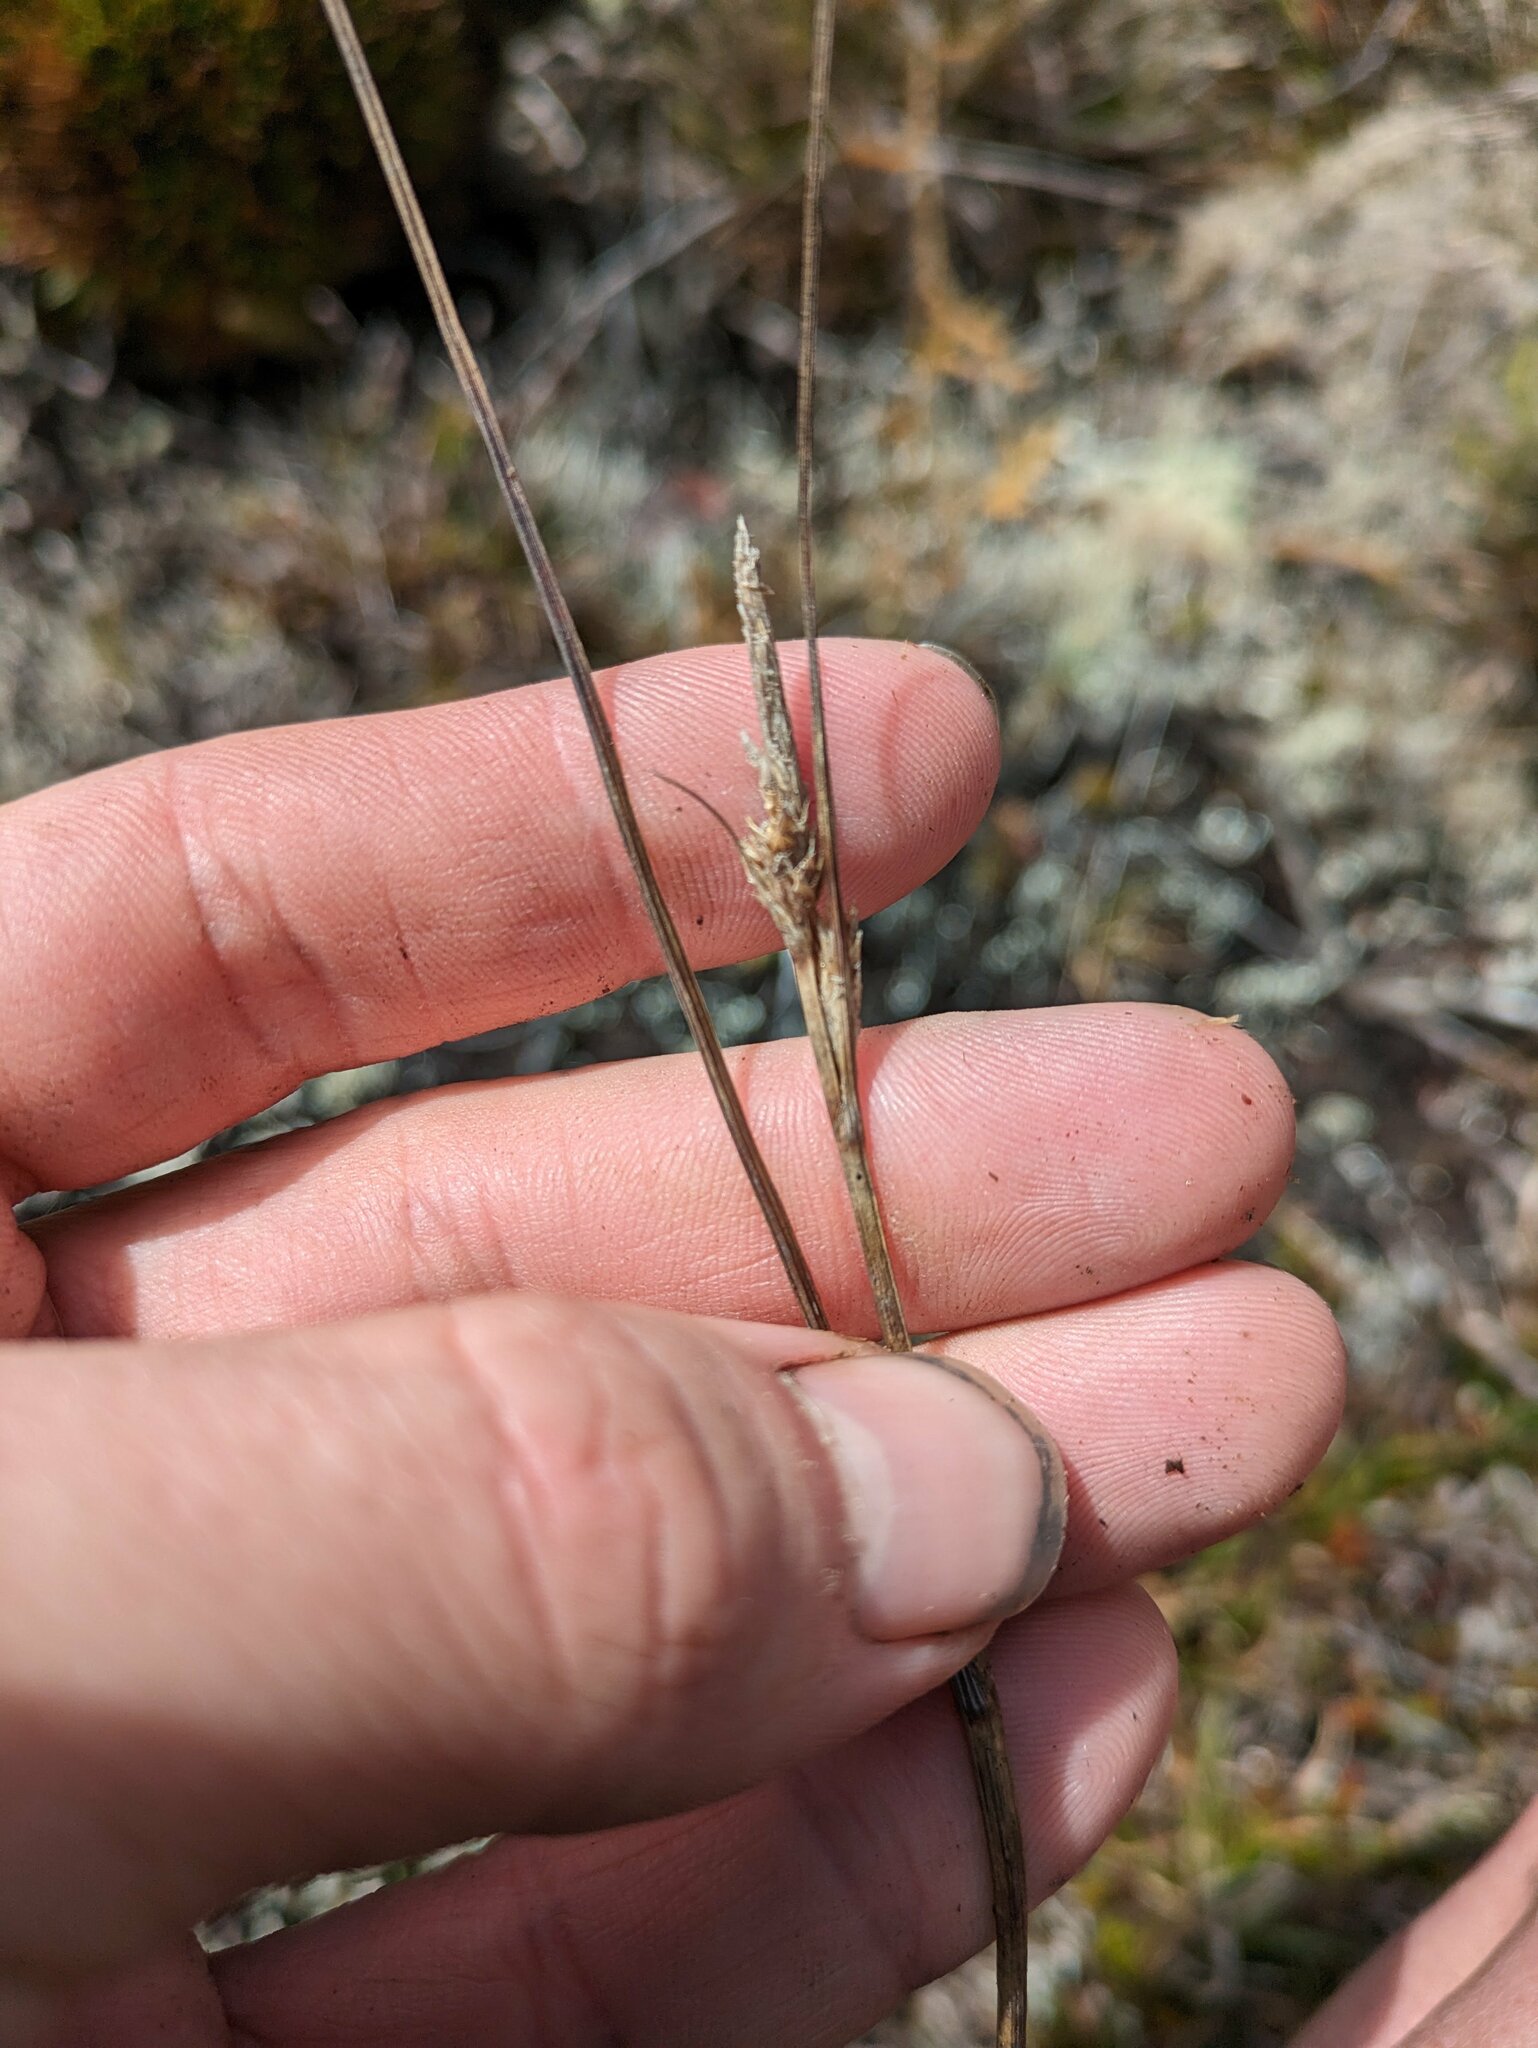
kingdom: Plantae
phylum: Tracheophyta
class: Liliopsida
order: Poales
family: Cyperaceae
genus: Carex
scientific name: Carex montis-eeka
